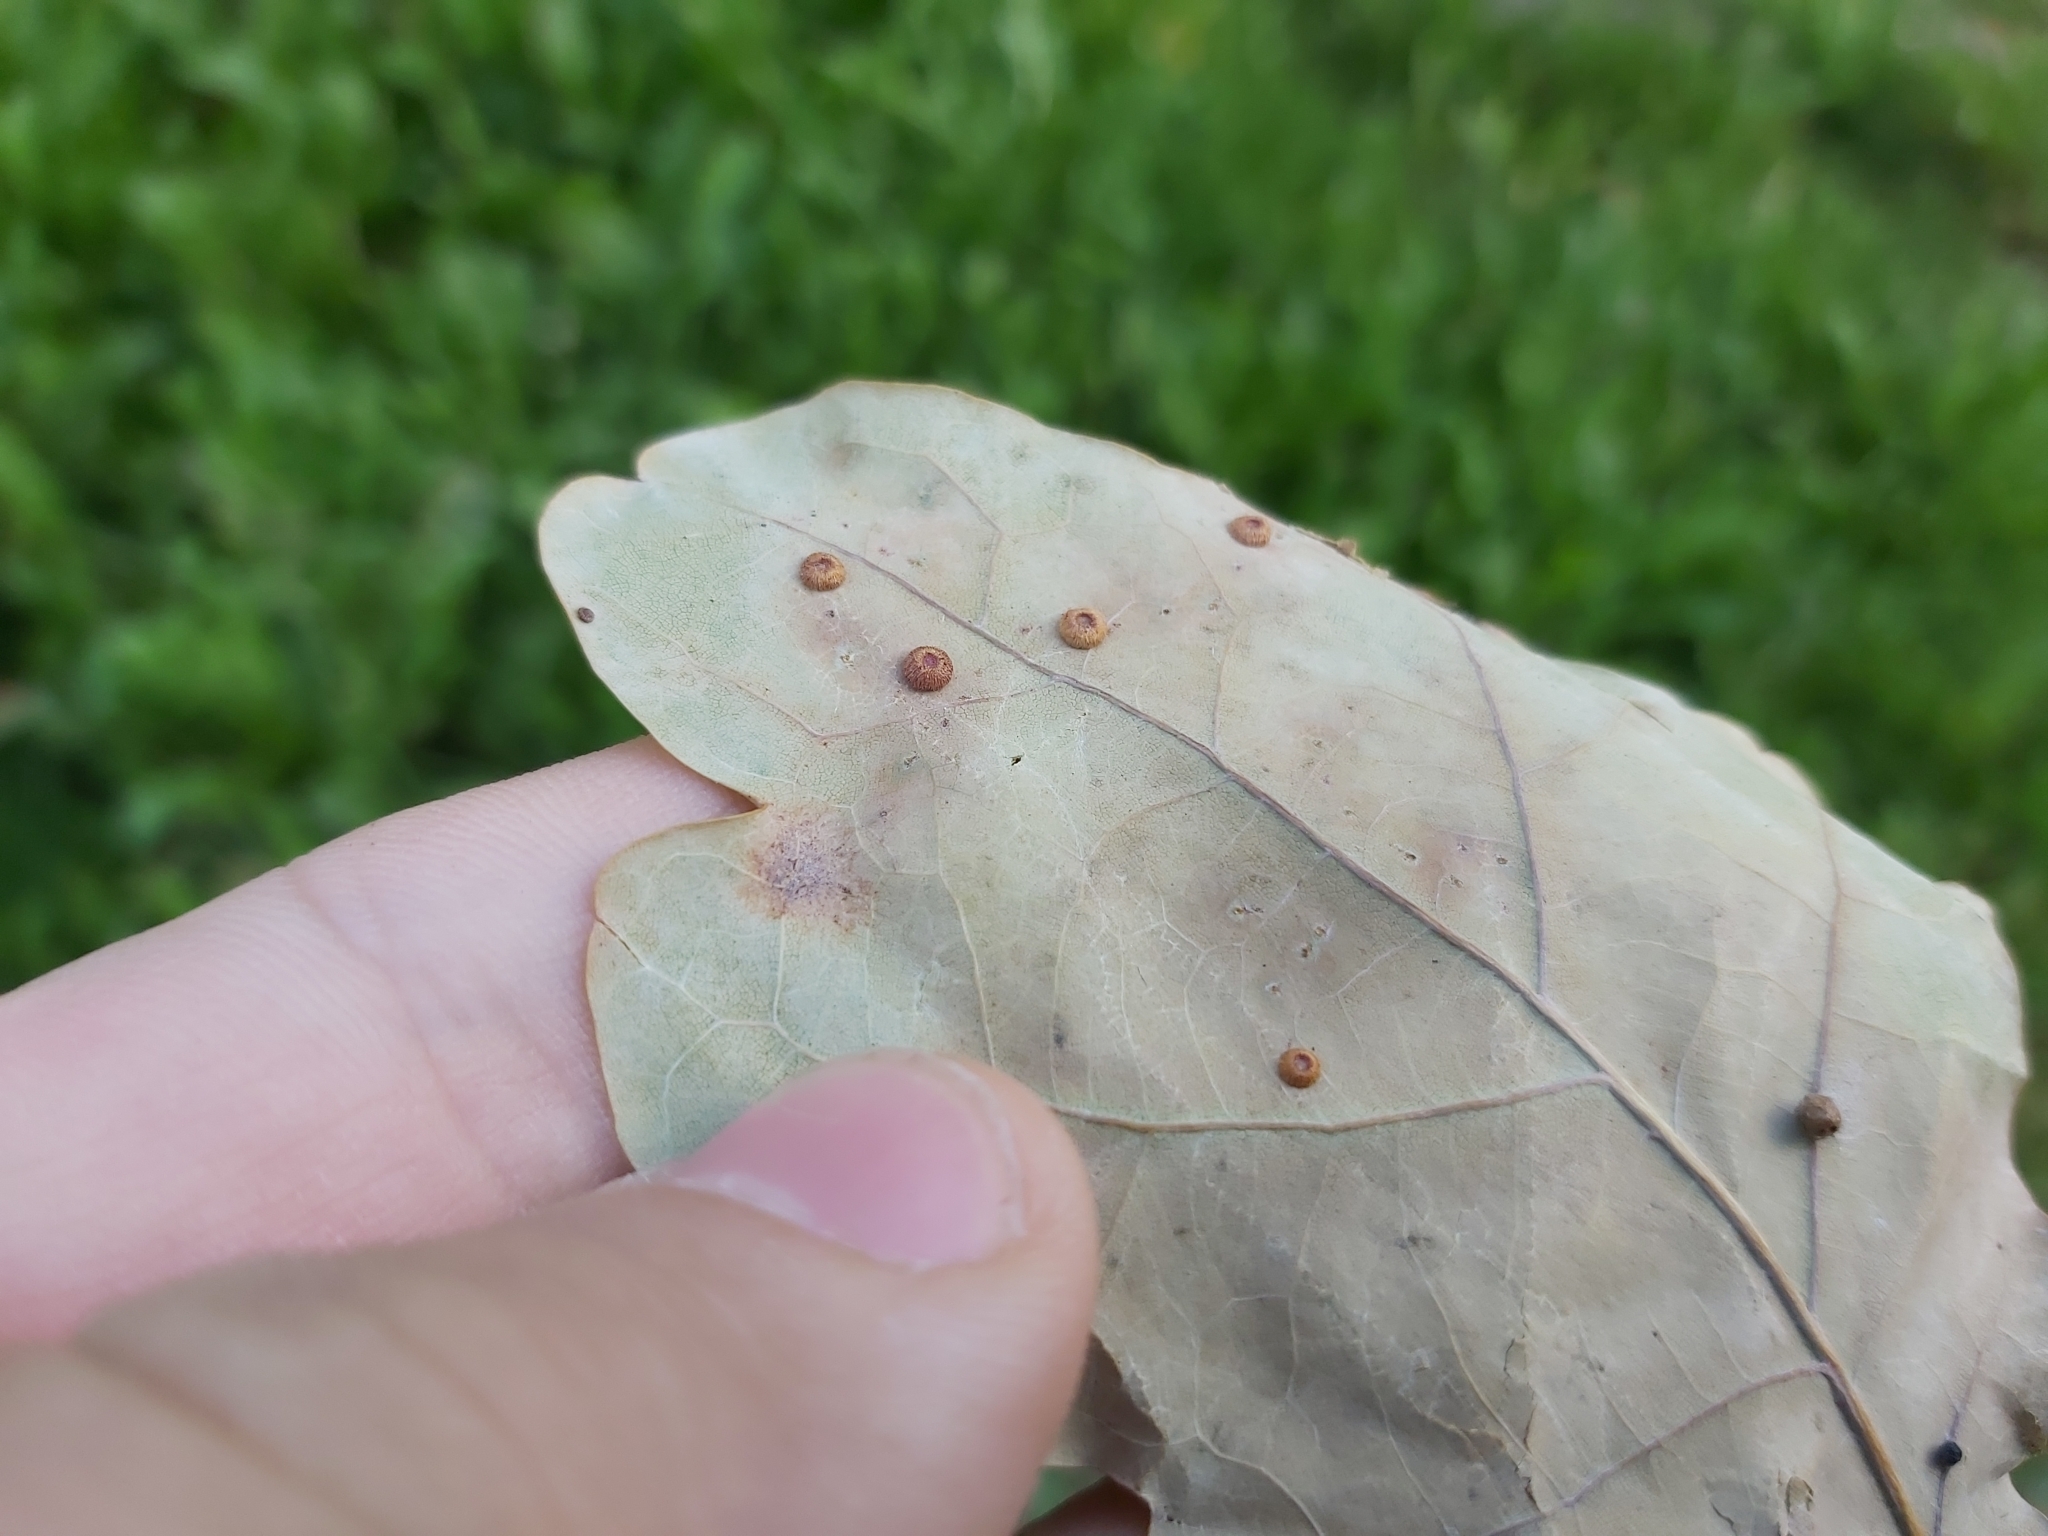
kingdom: Animalia
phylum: Arthropoda
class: Insecta
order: Hymenoptera
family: Cynipidae
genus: Neuroterus
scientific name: Neuroterus numismalis
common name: Silk-button spangle gall
